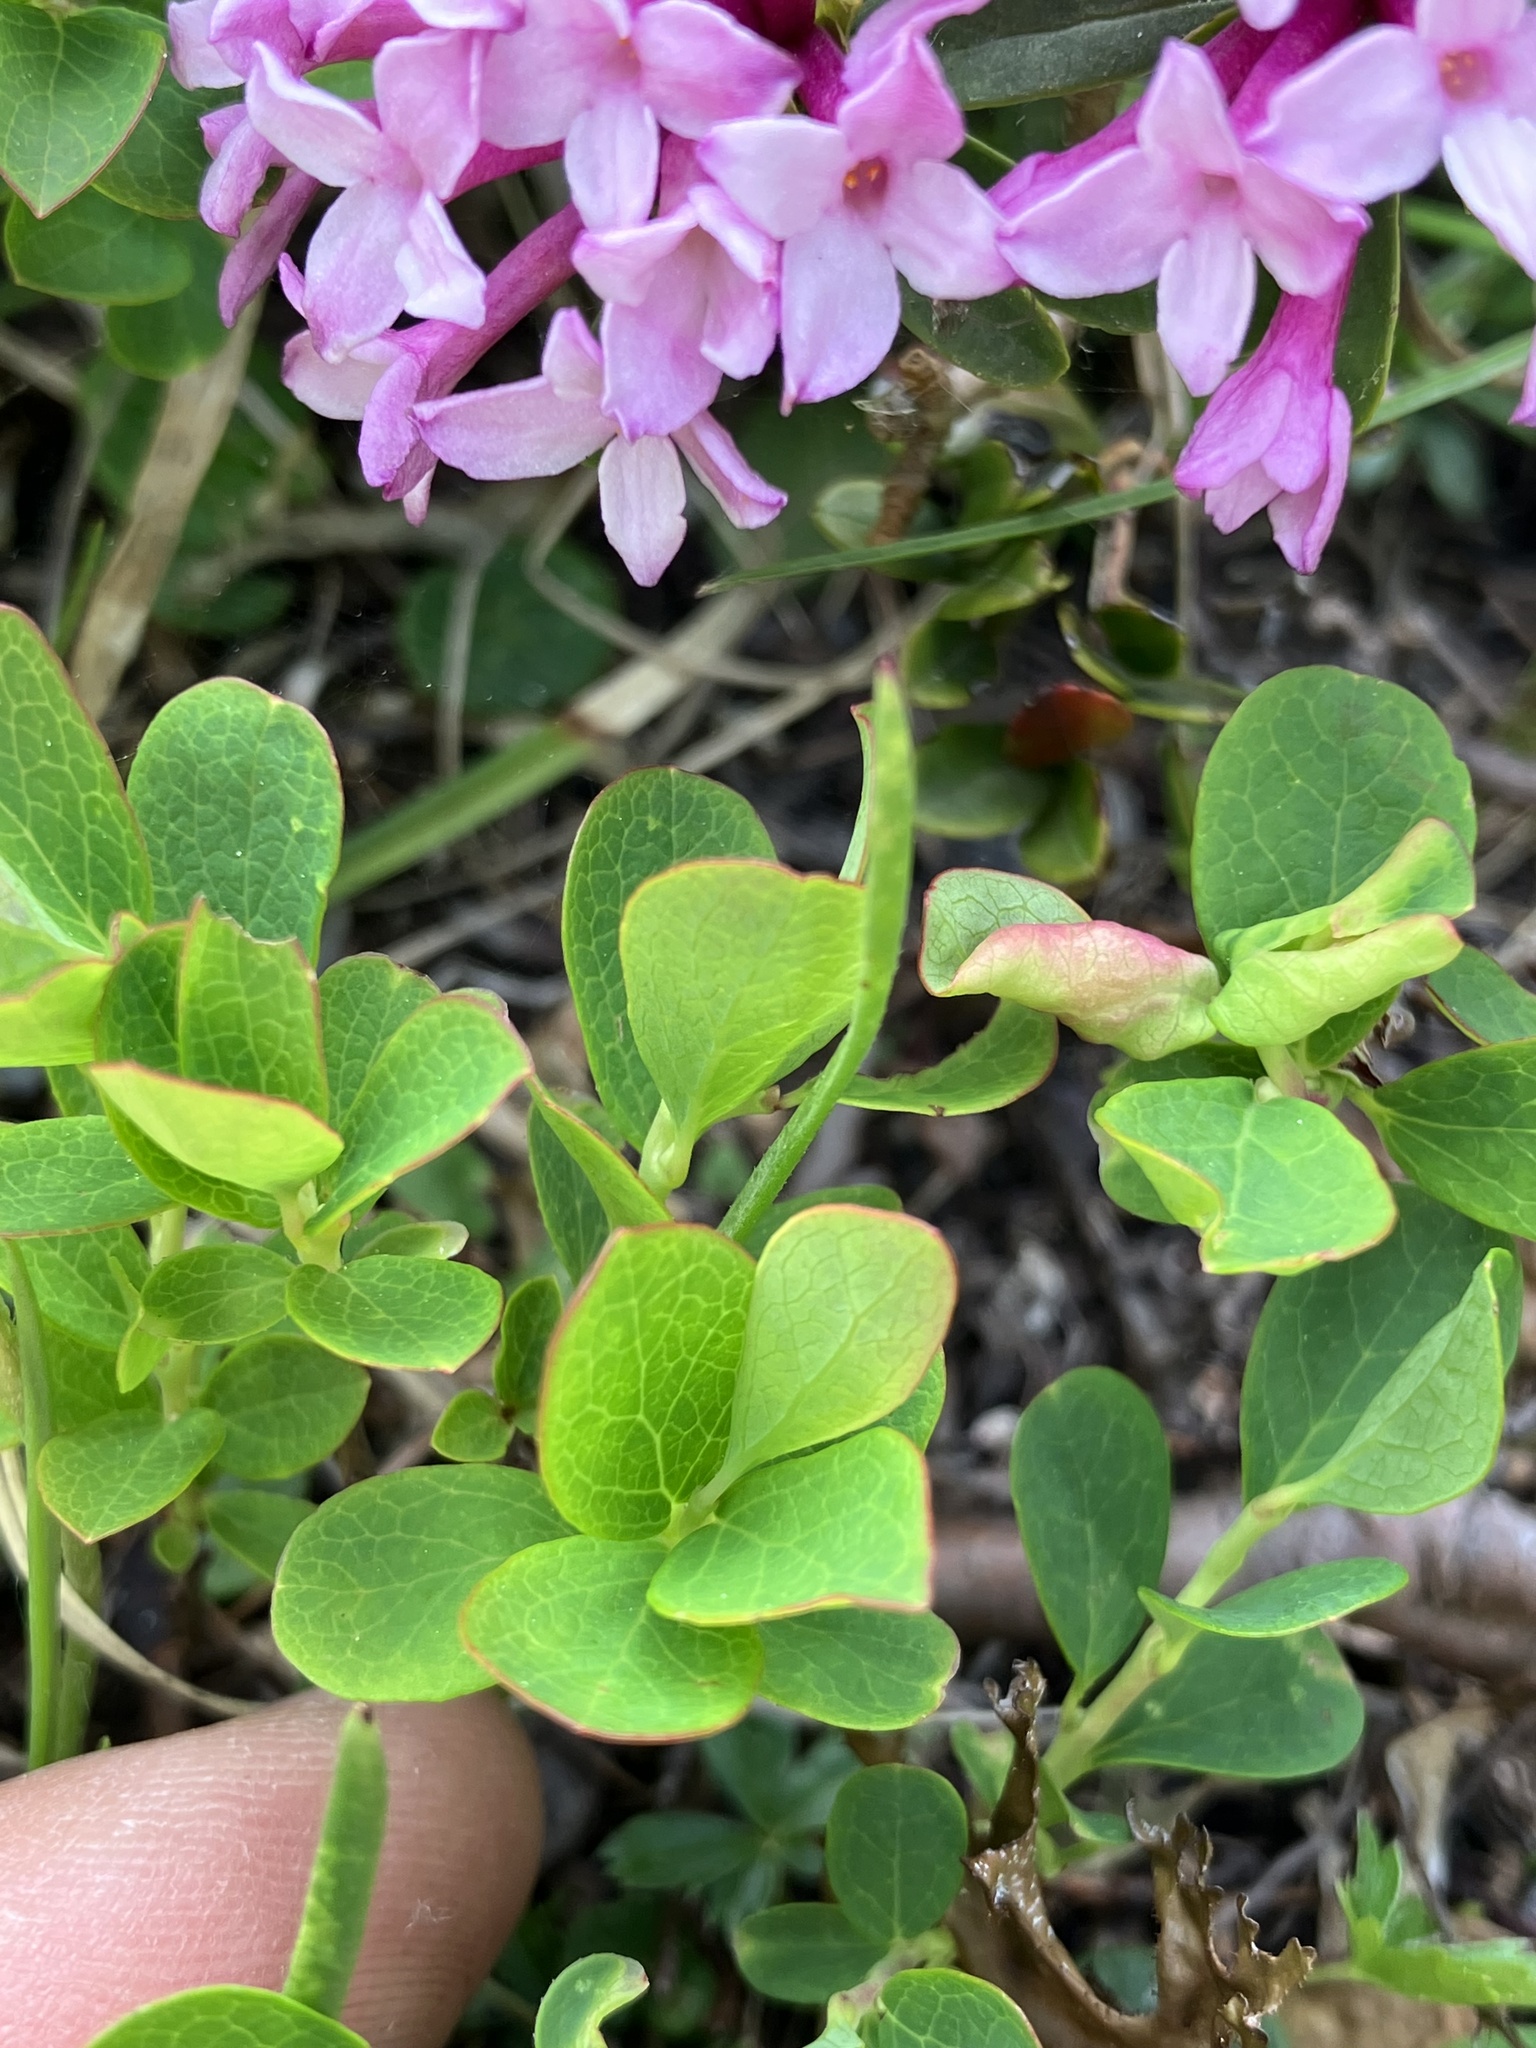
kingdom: Plantae
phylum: Tracheophyta
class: Magnoliopsida
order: Malvales
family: Thymelaeaceae
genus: Daphne
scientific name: Daphne striata
